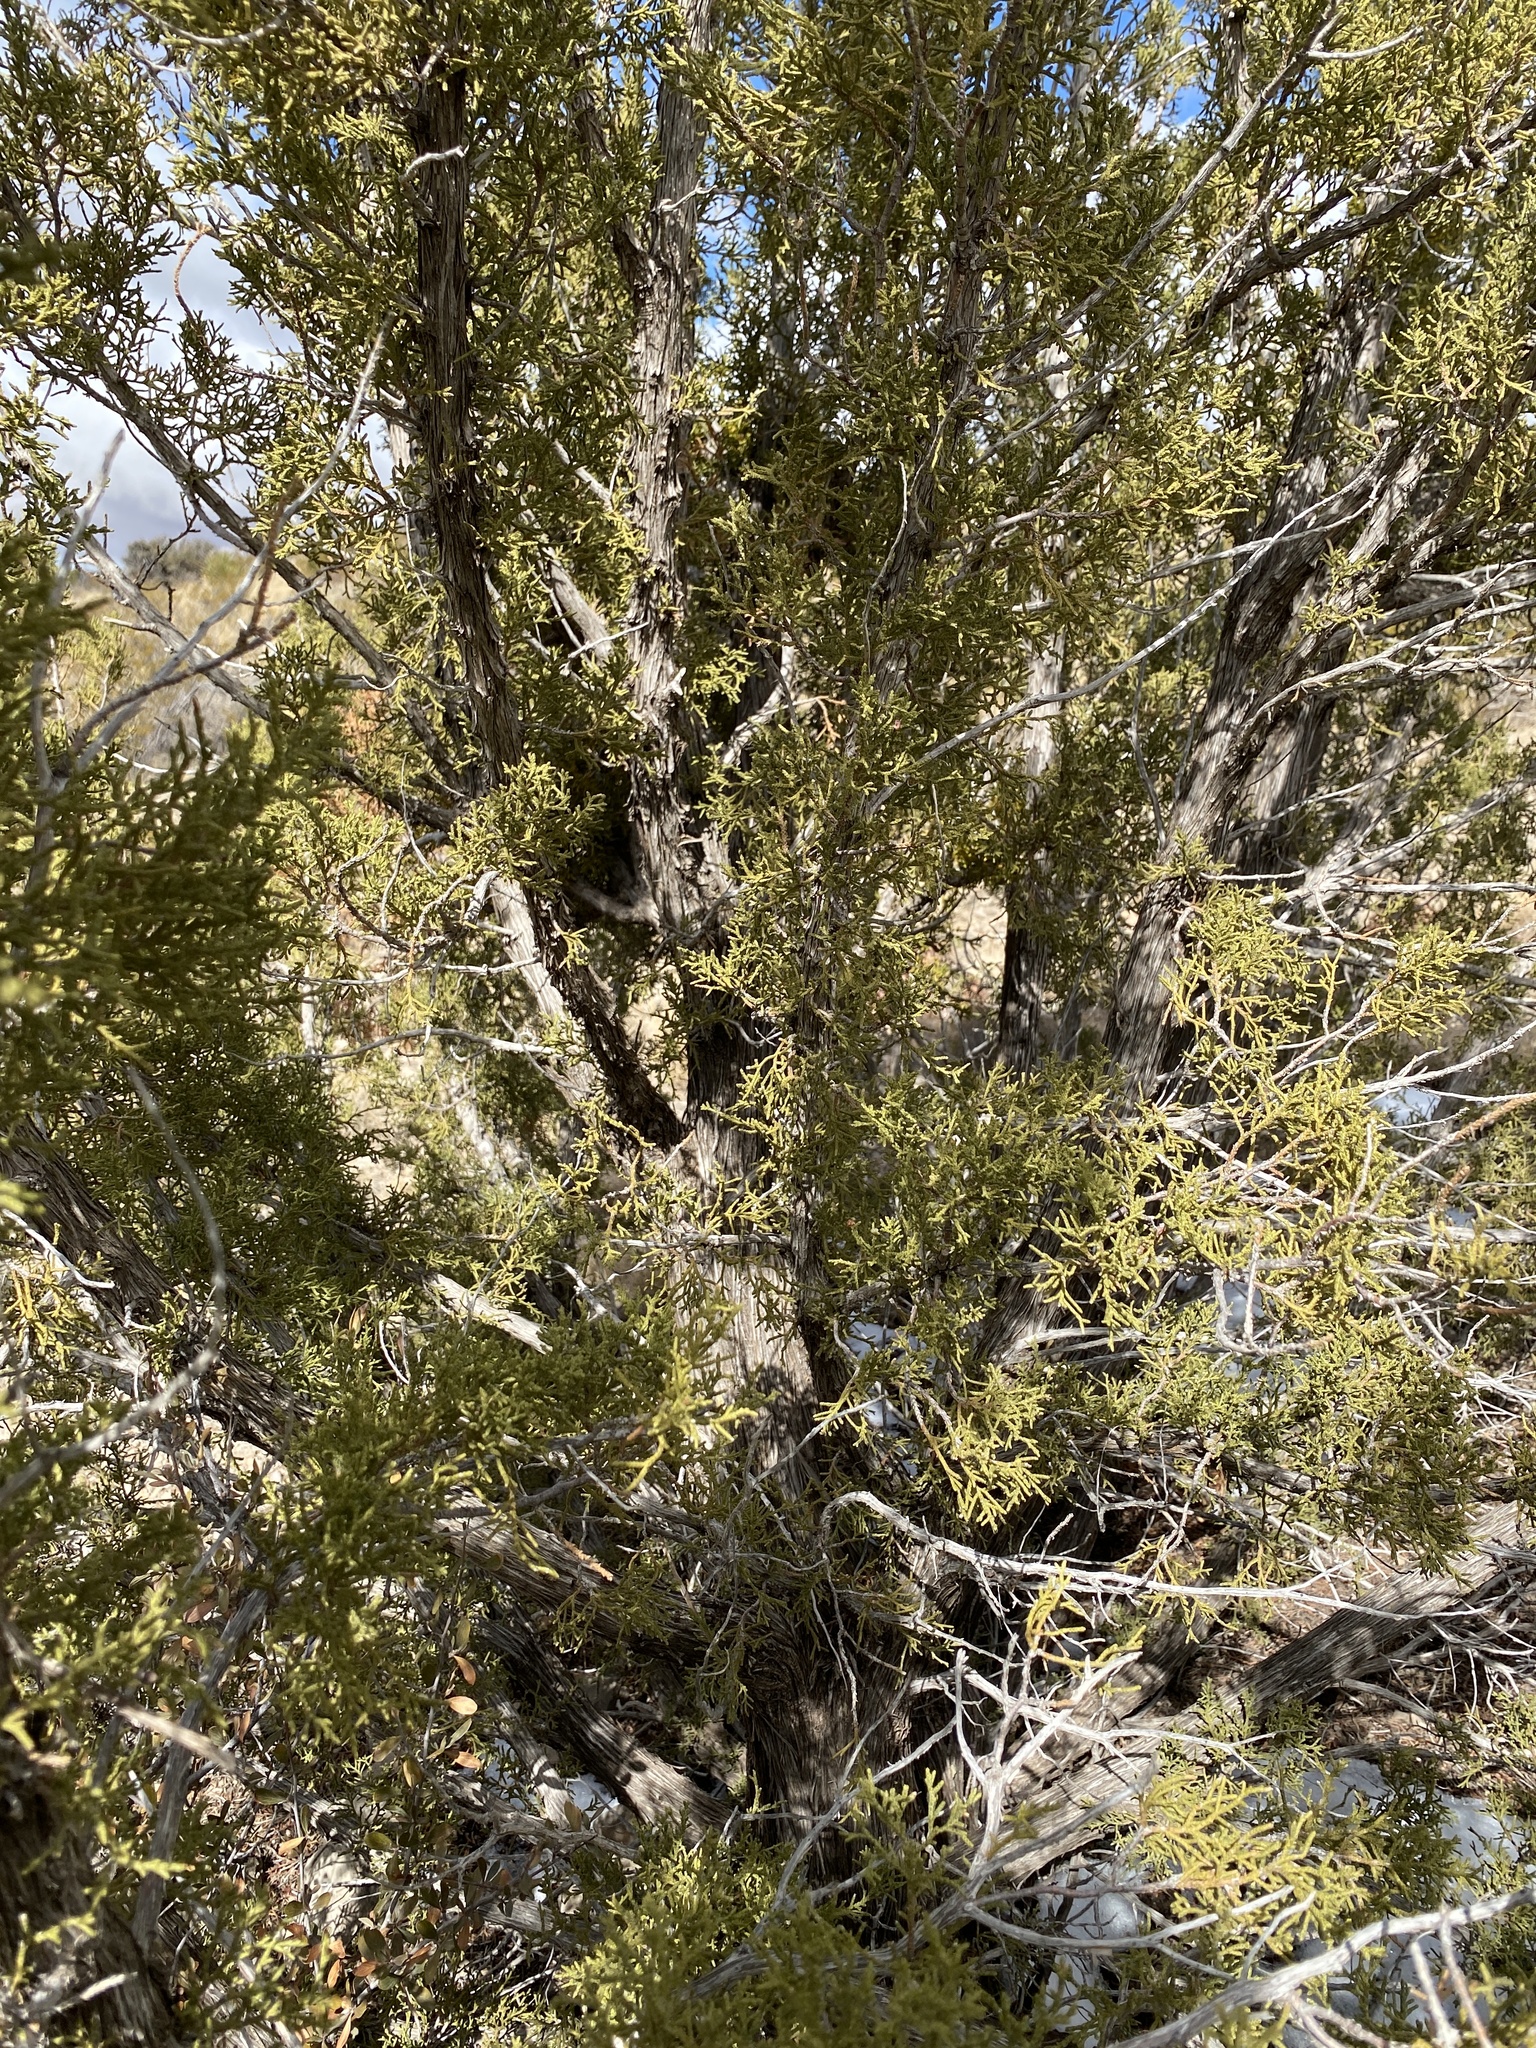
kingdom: Plantae
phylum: Tracheophyta
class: Pinopsida
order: Pinales
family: Cupressaceae
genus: Juniperus
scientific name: Juniperus monosperma
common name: One-seed juniper
